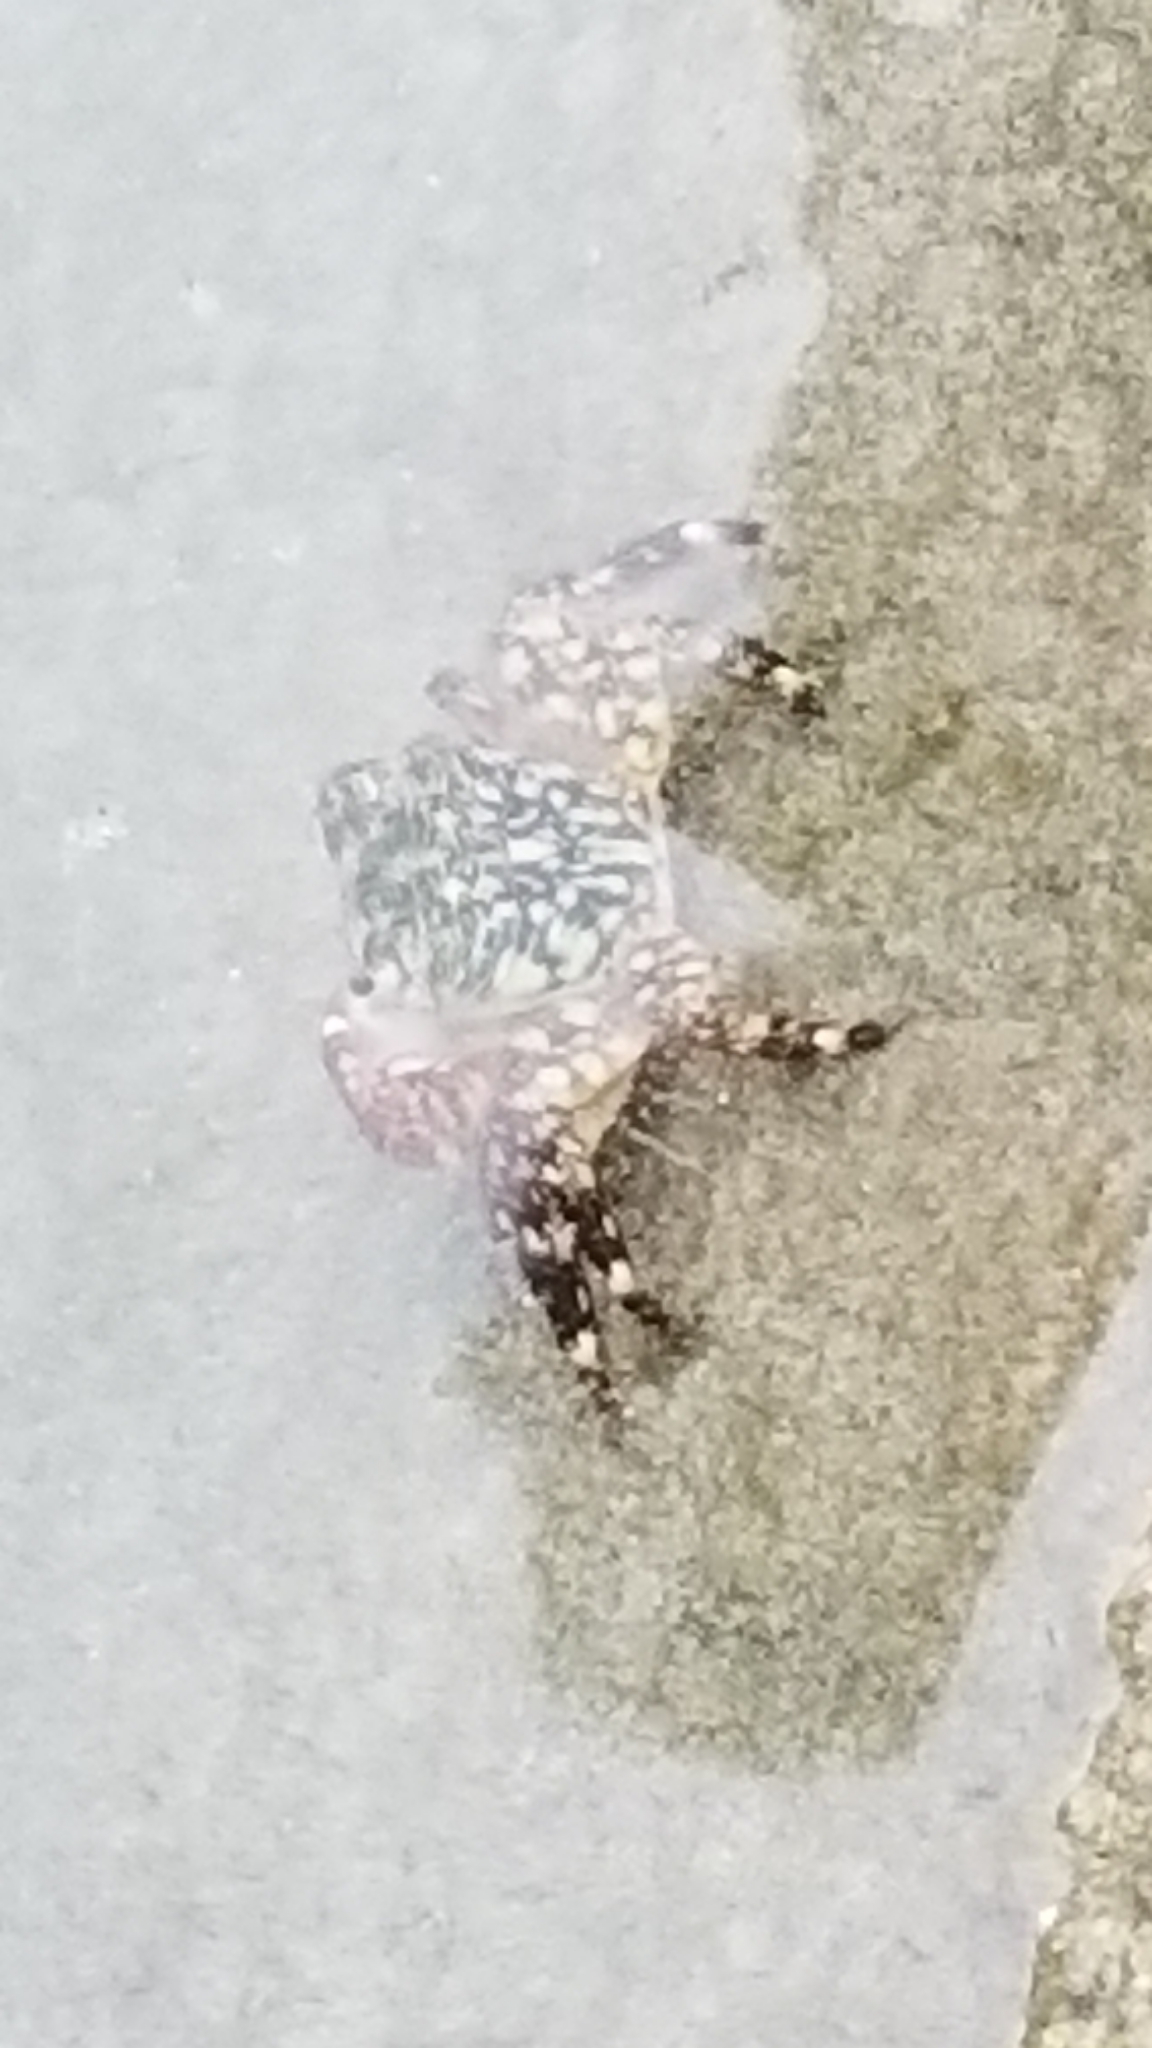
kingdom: Animalia
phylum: Arthropoda
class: Malacostraca
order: Decapoda
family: Grapsidae
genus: Pachygrapsus
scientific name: Pachygrapsus crassipes
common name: Striped shore crab
